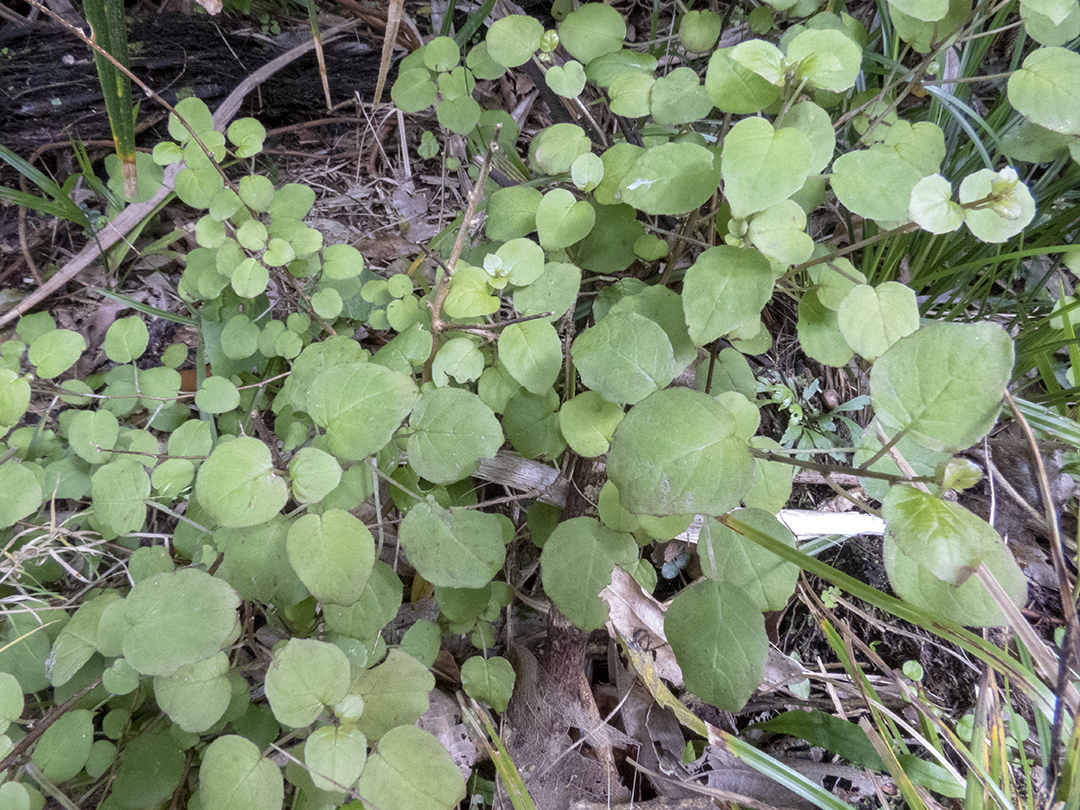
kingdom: Plantae
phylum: Tracheophyta
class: Magnoliopsida
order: Myrtales
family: Onagraceae
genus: Fuchsia
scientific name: Fuchsia perscandens
